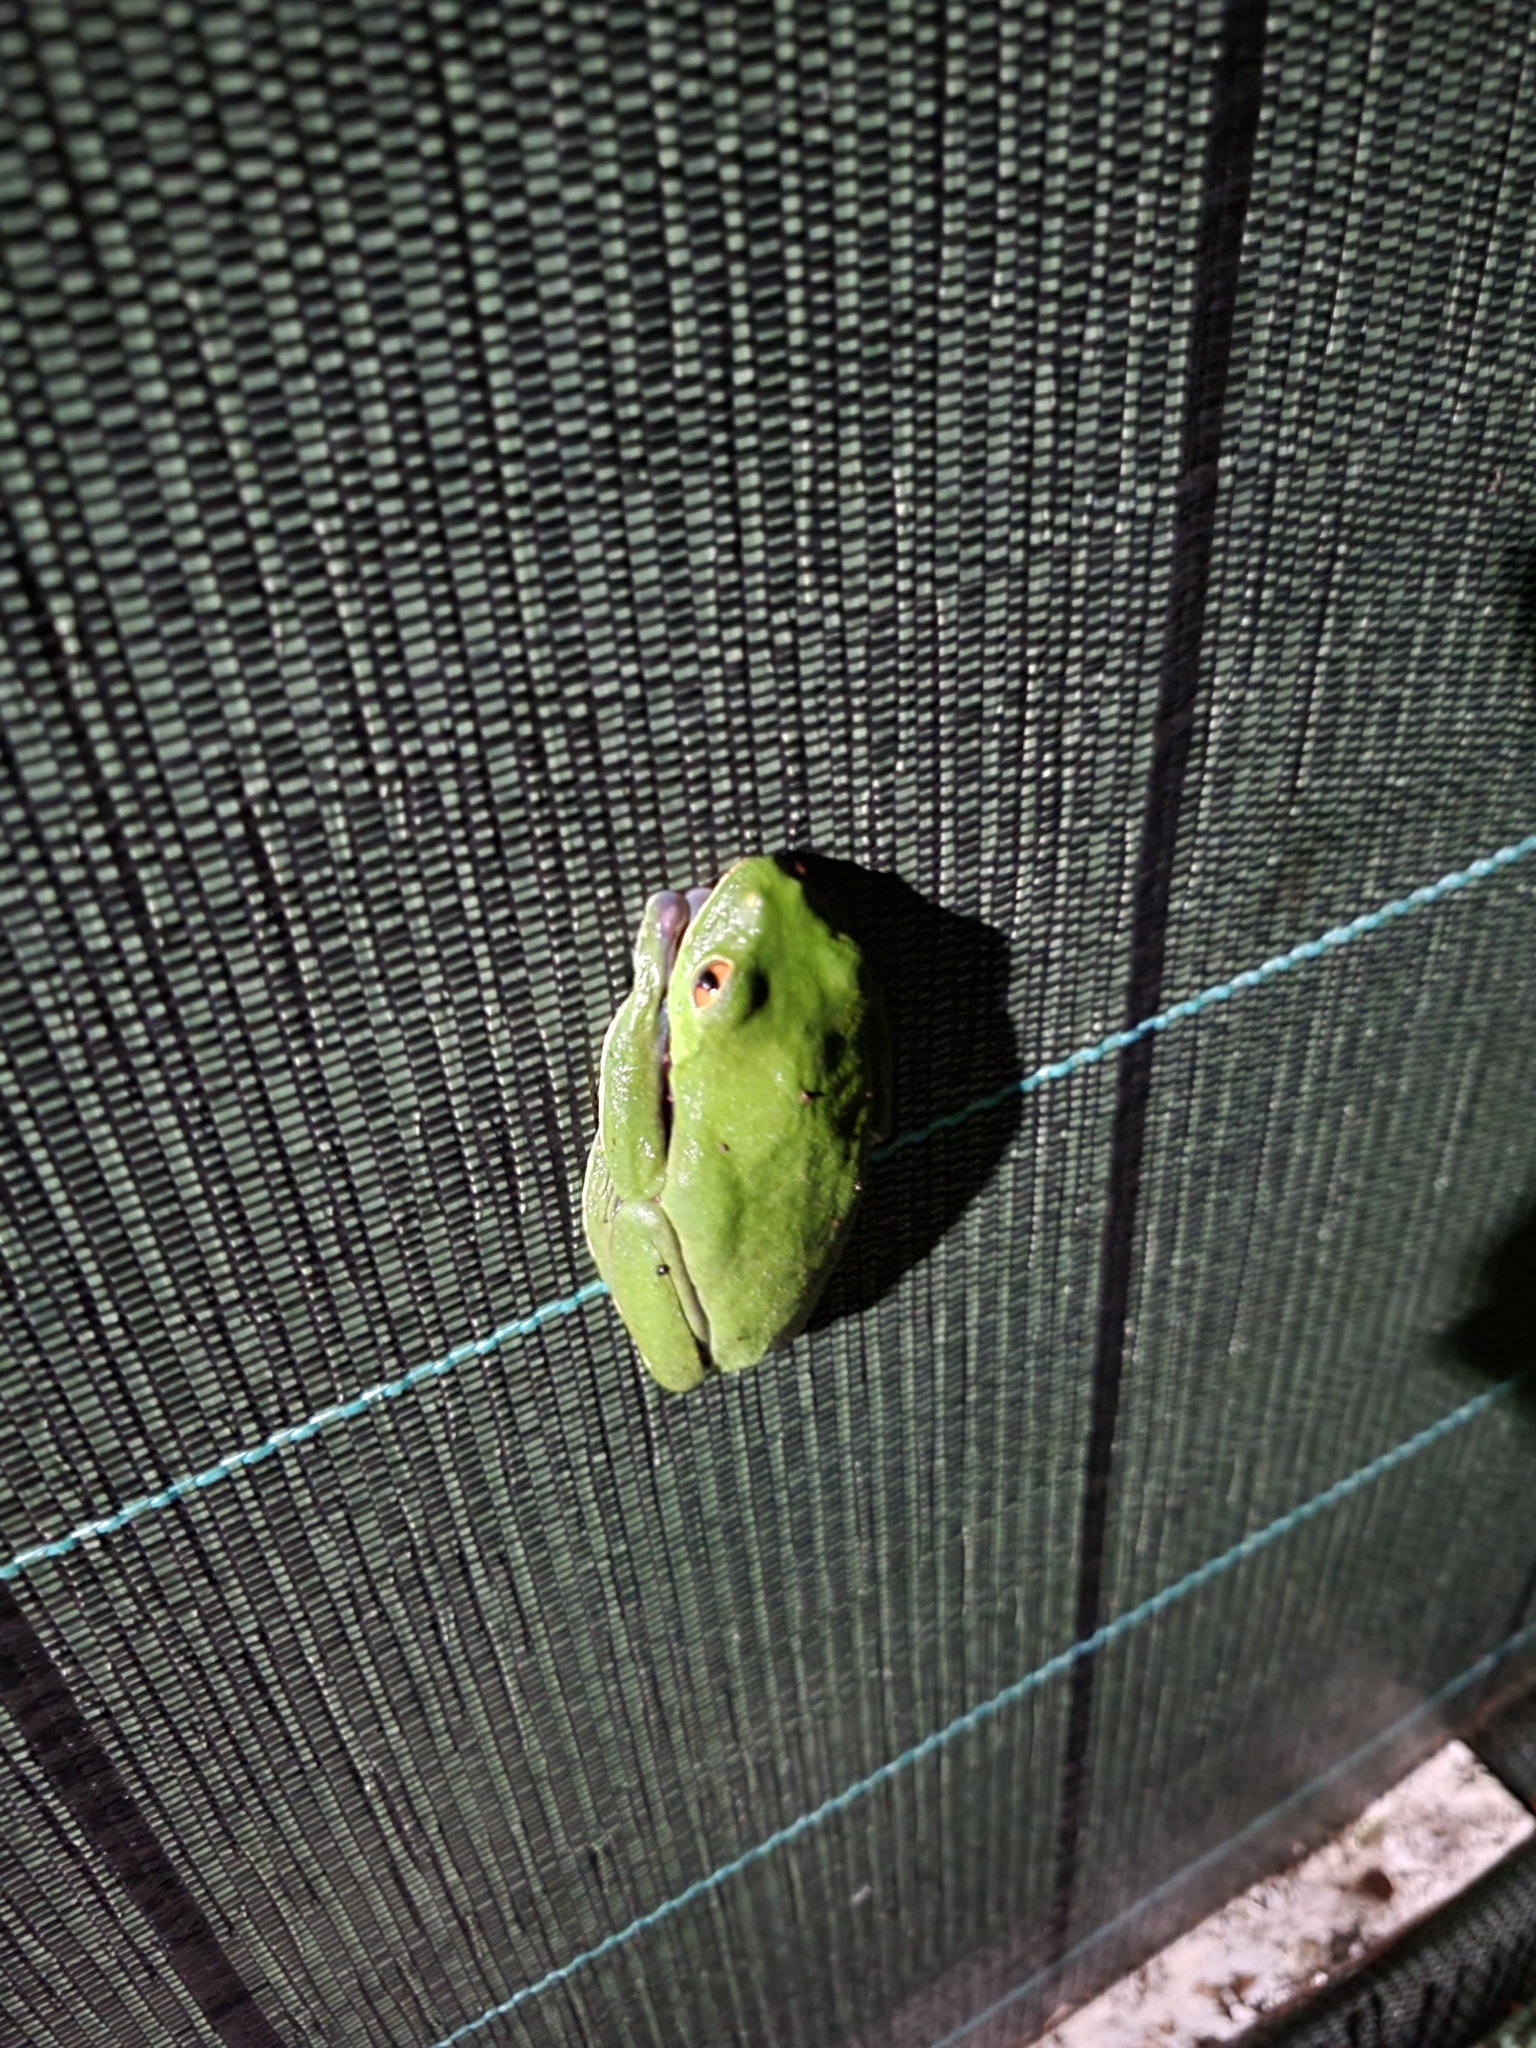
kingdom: Animalia
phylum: Chordata
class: Amphibia
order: Anura
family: Phyllomedusidae
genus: Agalychnis
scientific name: Agalychnis annae
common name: Blue-sided treefrog
